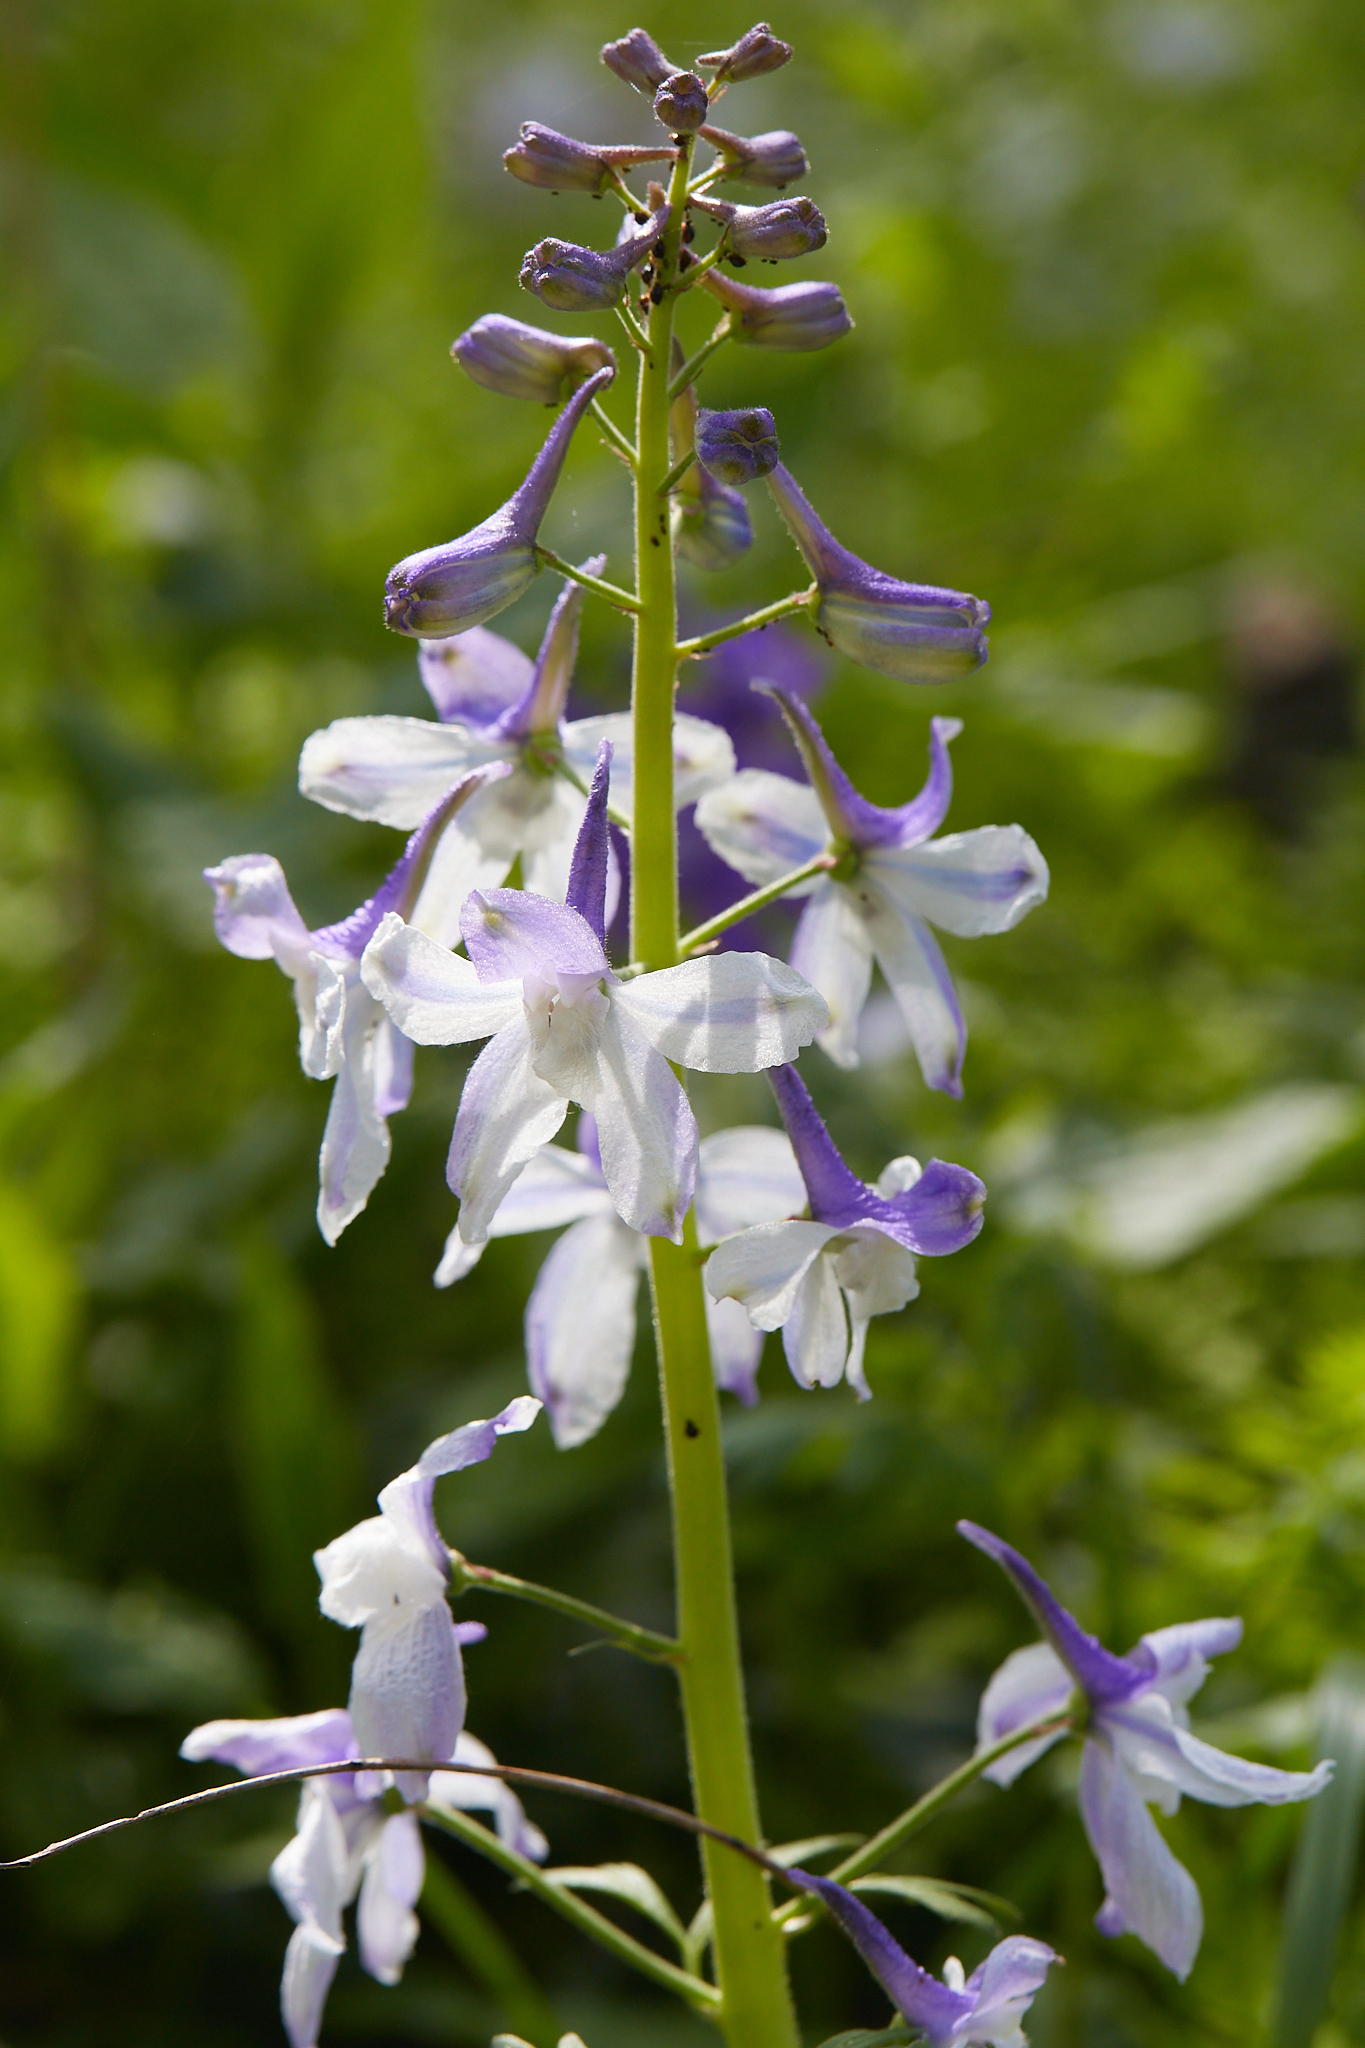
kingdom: Plantae
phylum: Tracheophyta
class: Magnoliopsida
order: Ranunculales
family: Ranunculaceae
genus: Delphinium
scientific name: Delphinium tricorne
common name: Dwarf larkspur
